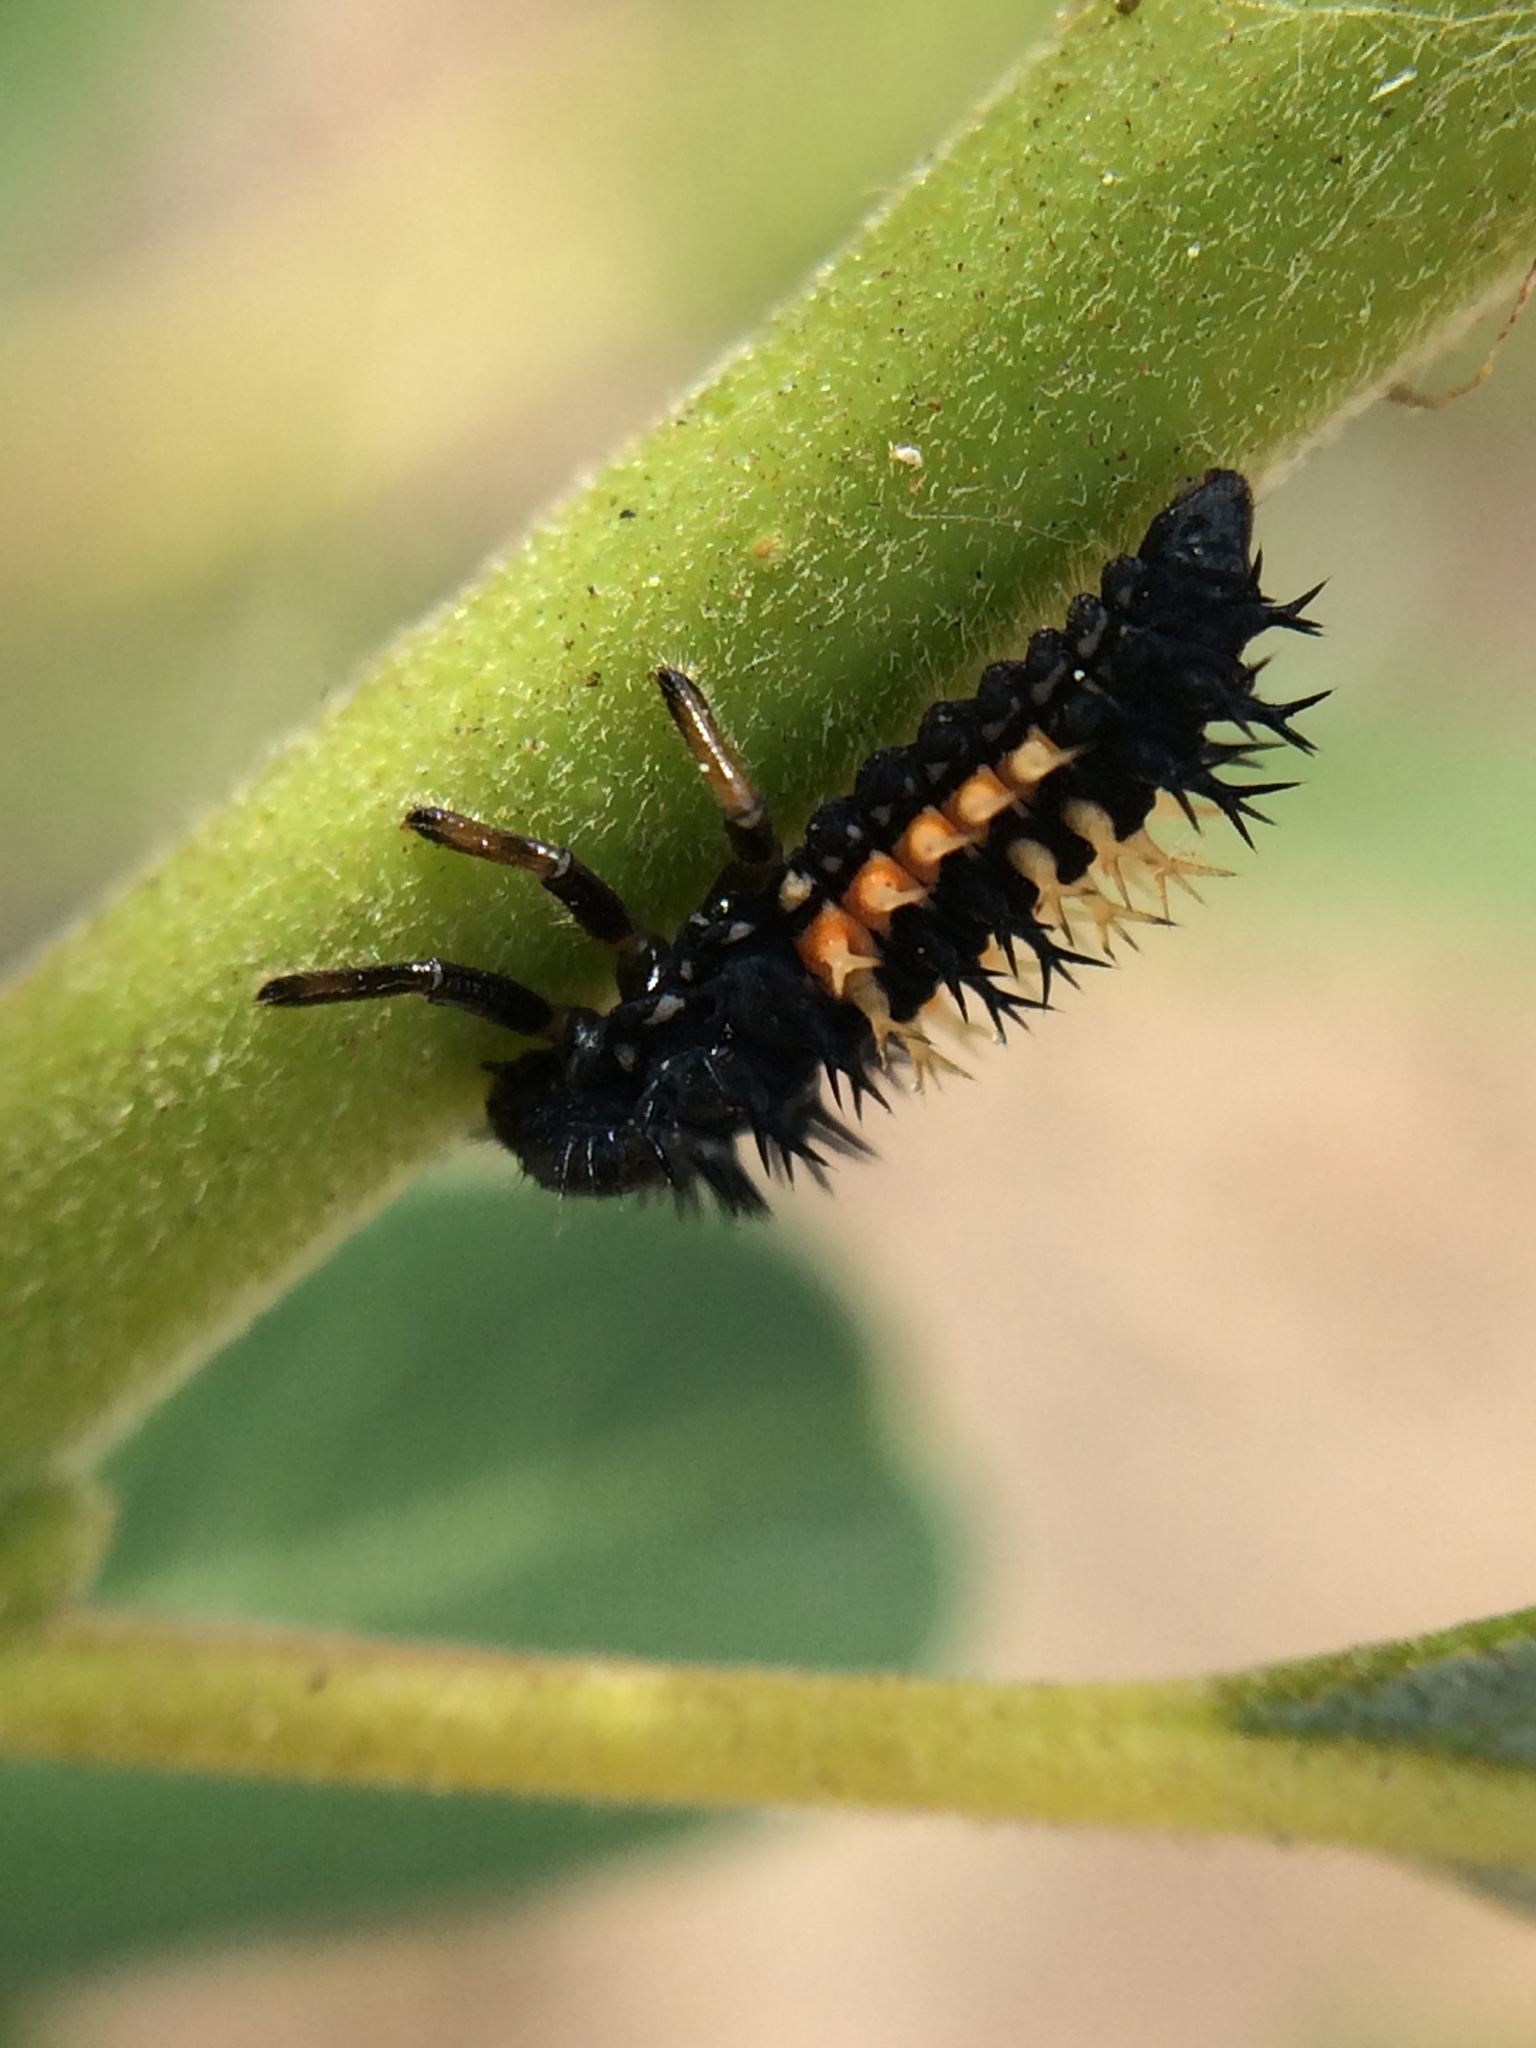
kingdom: Animalia
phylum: Arthropoda
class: Insecta
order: Coleoptera
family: Coccinellidae
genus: Harmonia
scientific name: Harmonia axyridis
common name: Harlequin ladybird
